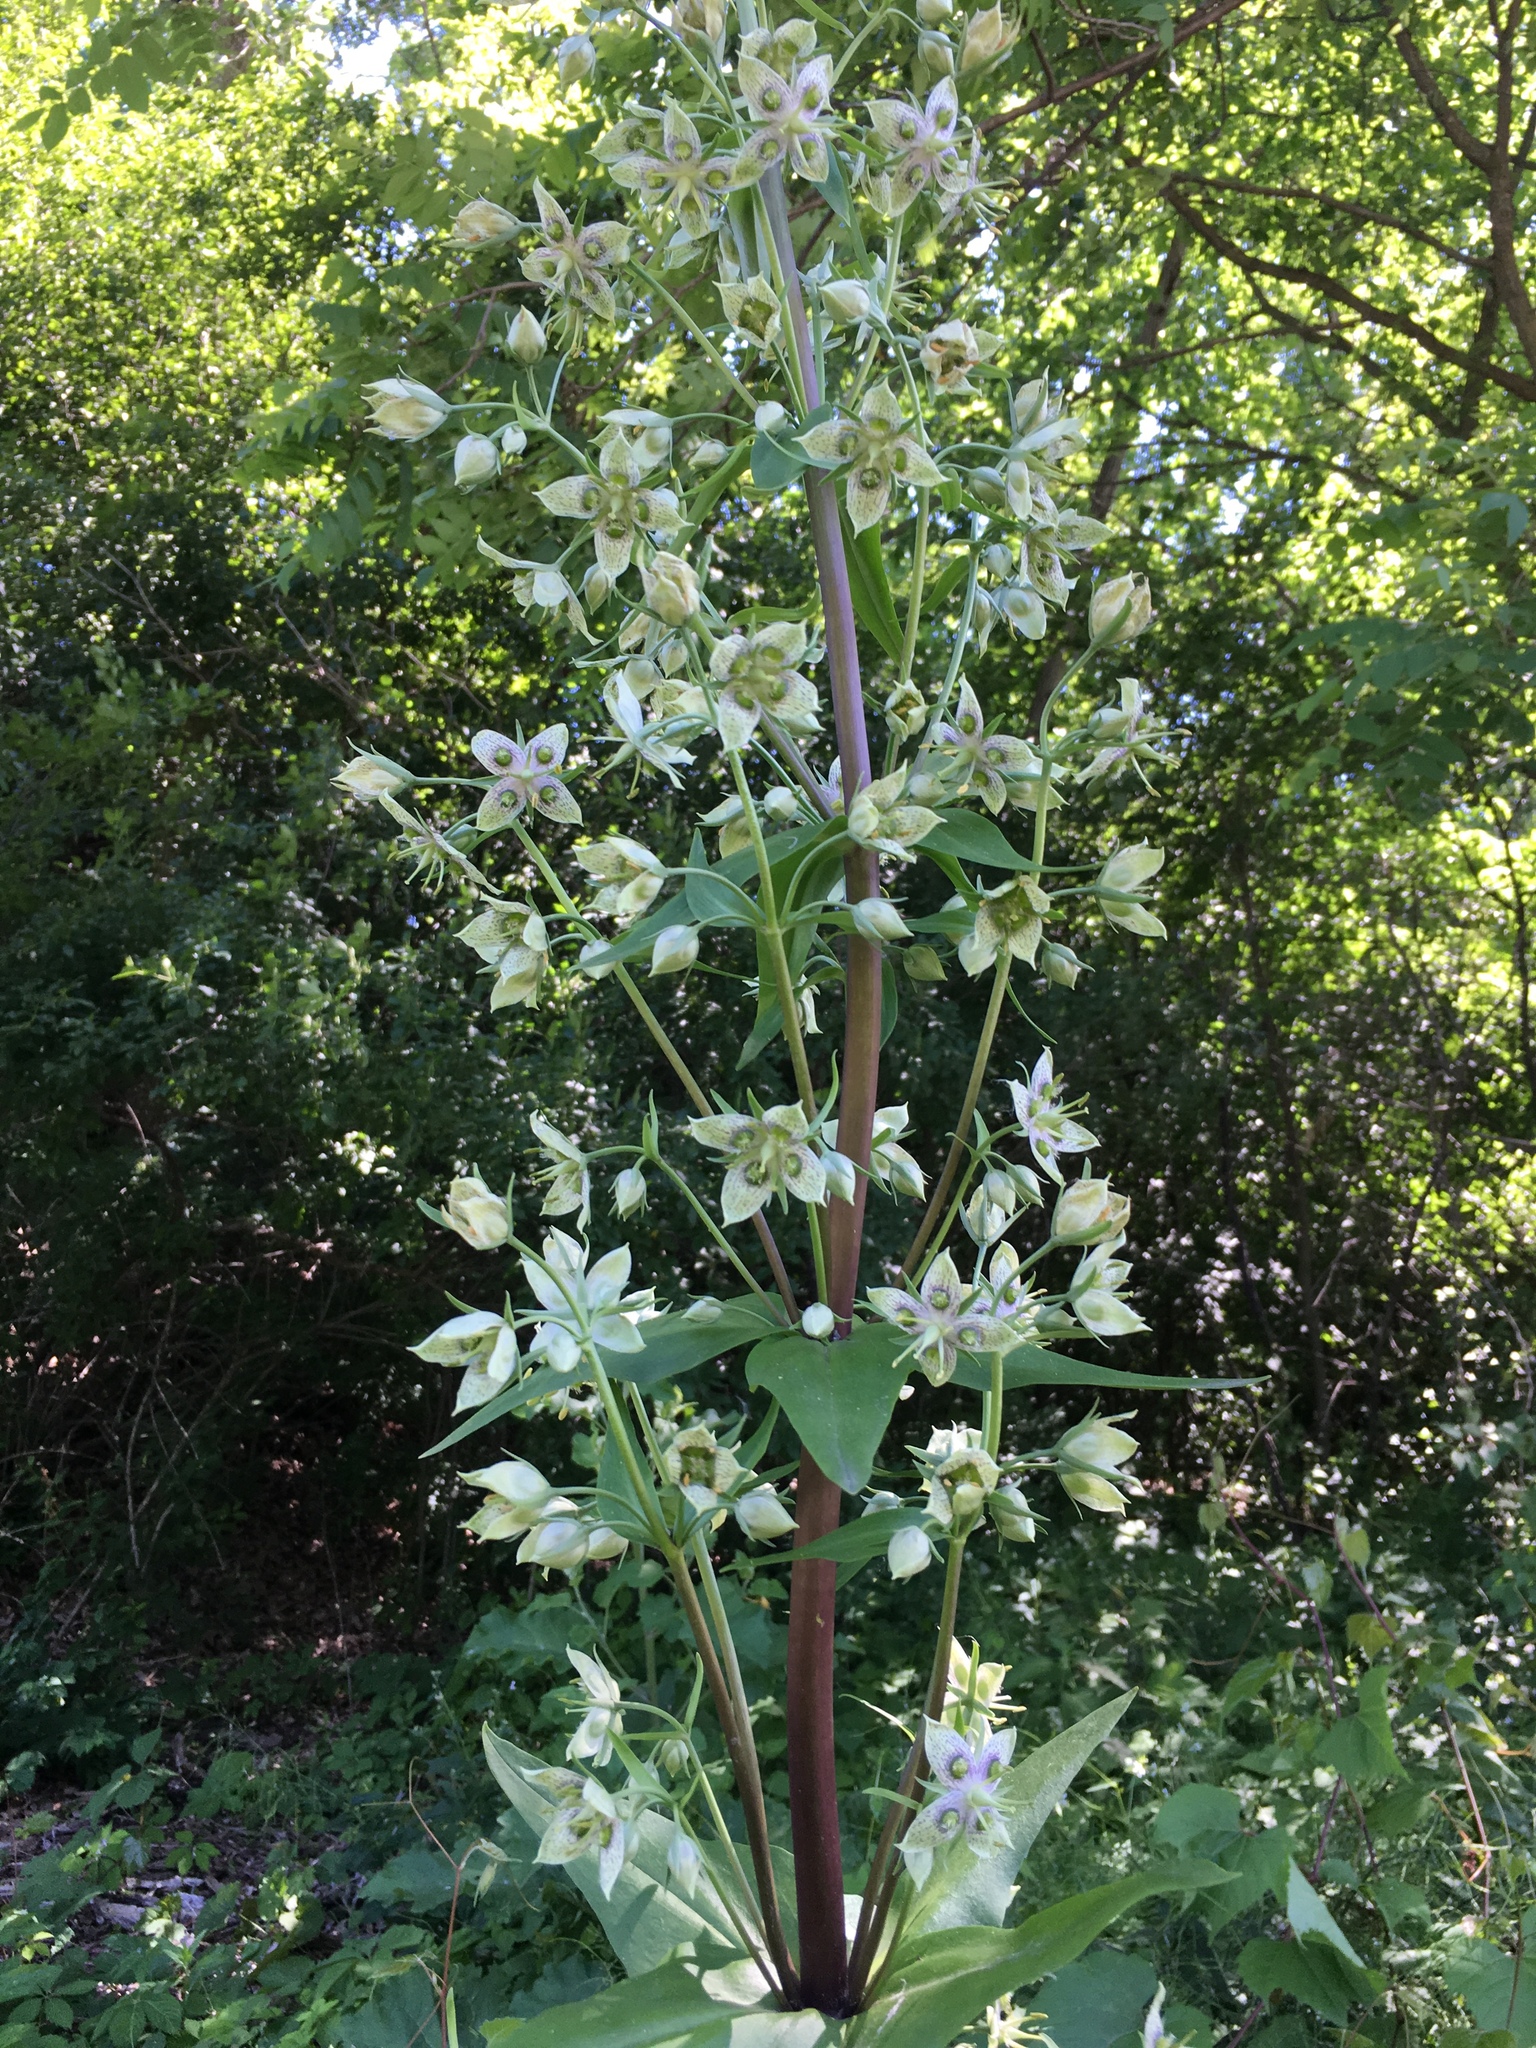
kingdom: Plantae
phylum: Tracheophyta
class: Magnoliopsida
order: Gentianales
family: Gentianaceae
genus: Frasera
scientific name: Frasera caroliniensis
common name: American columbo
